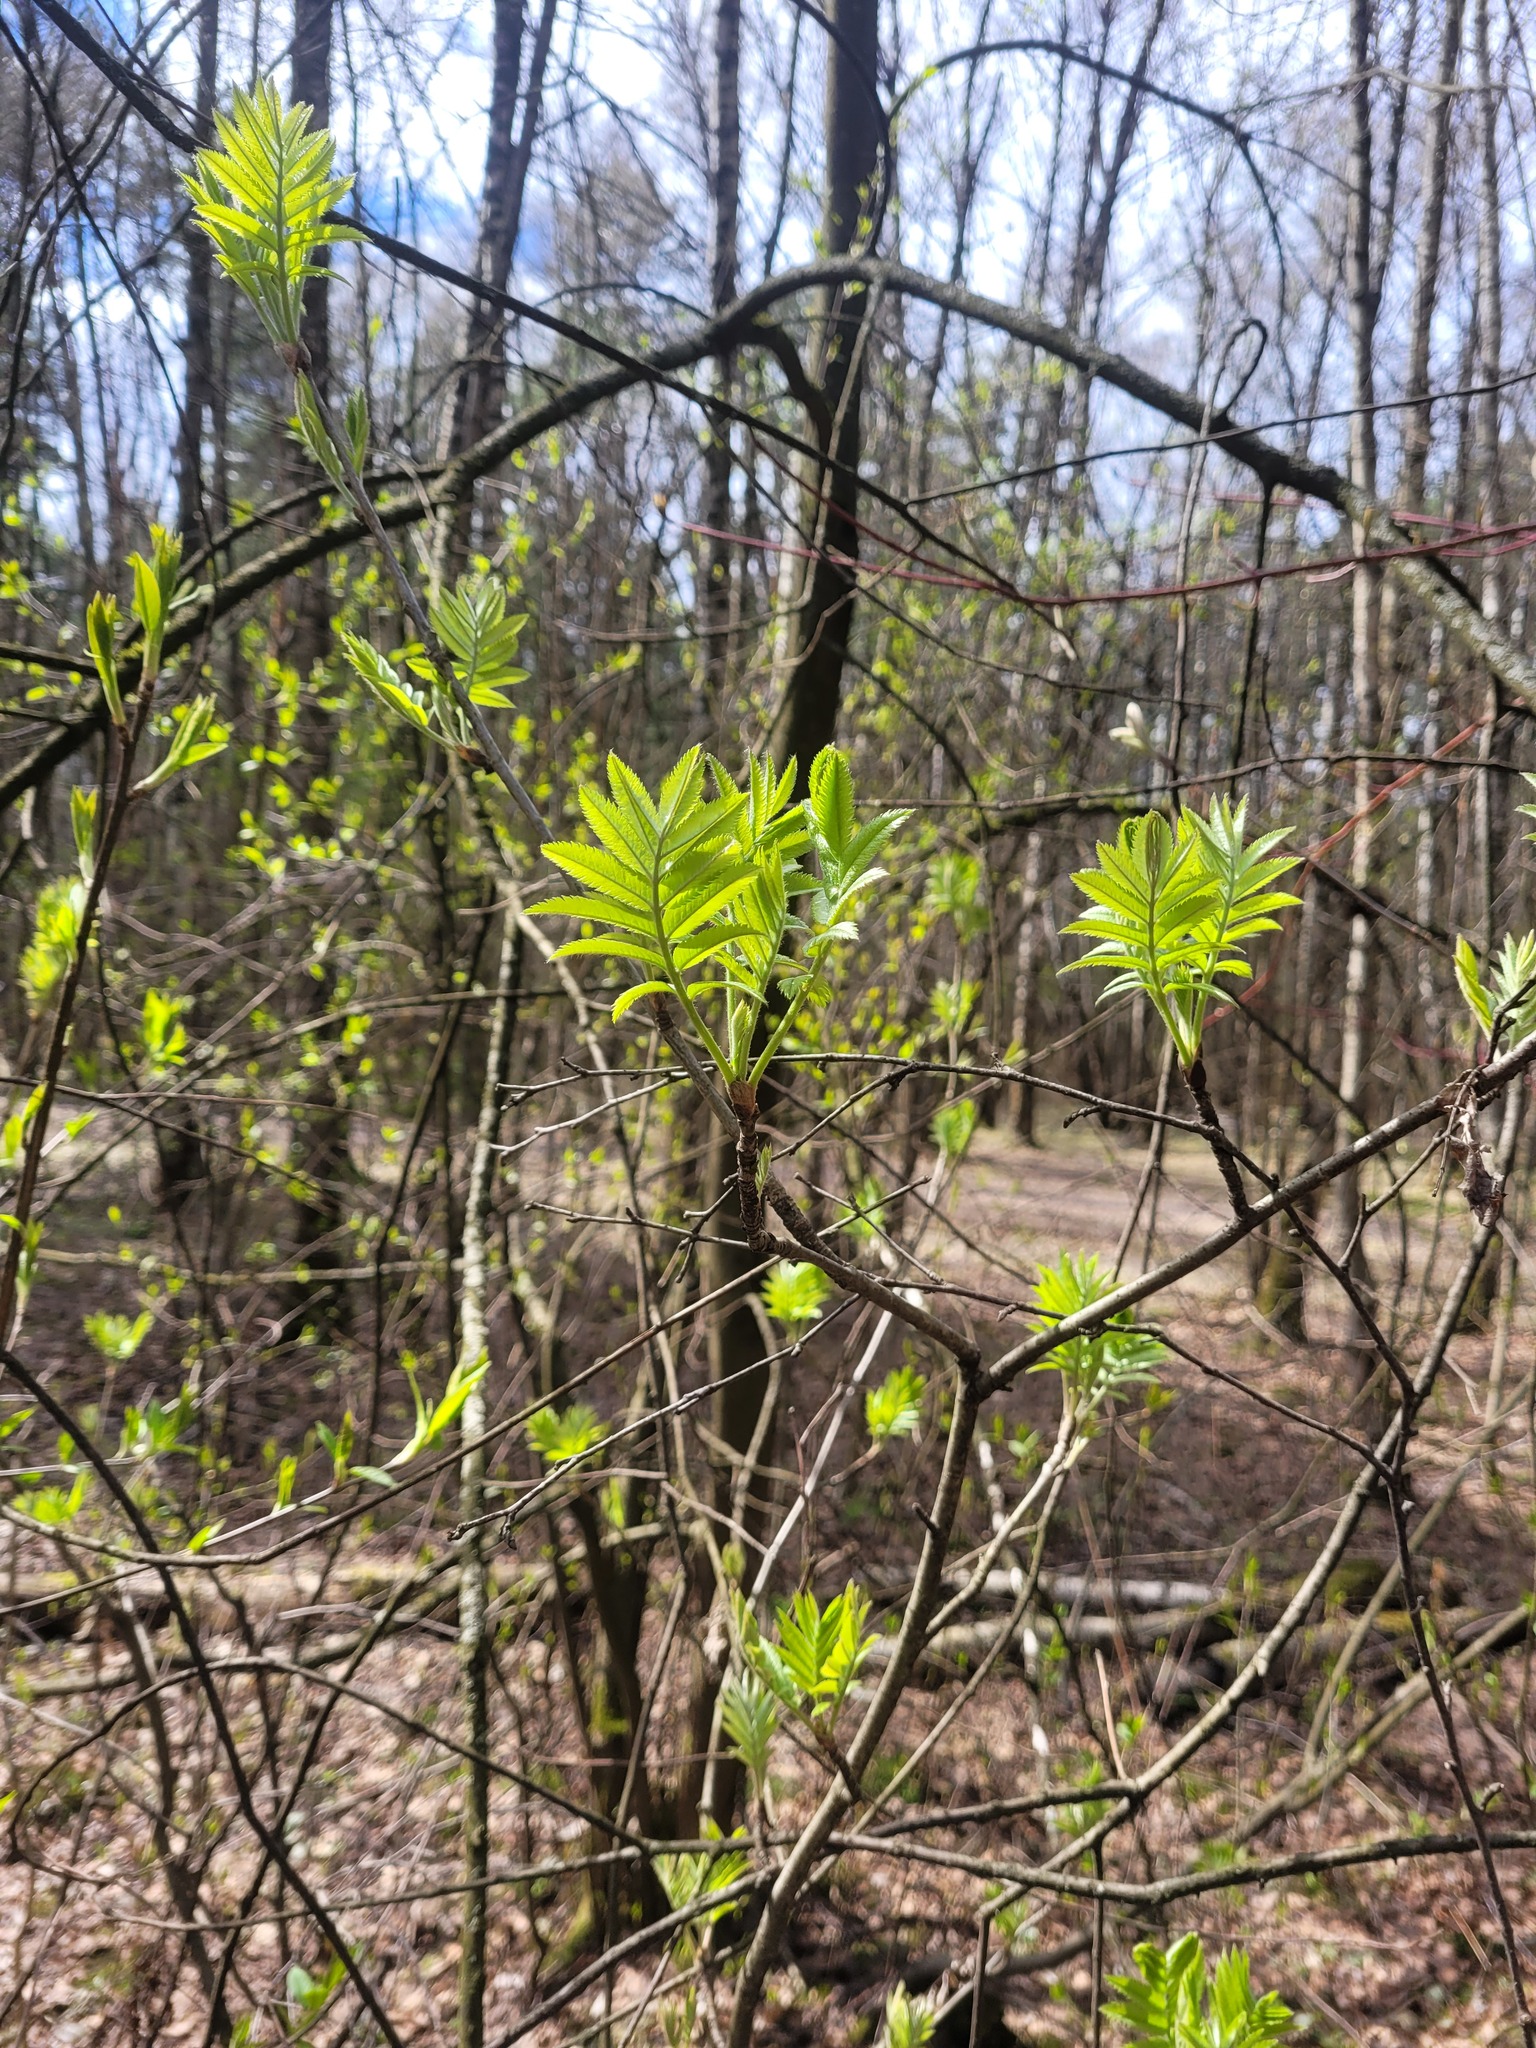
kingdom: Plantae
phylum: Tracheophyta
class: Magnoliopsida
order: Rosales
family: Rosaceae
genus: Sorbus
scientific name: Sorbus aucuparia
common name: Rowan
